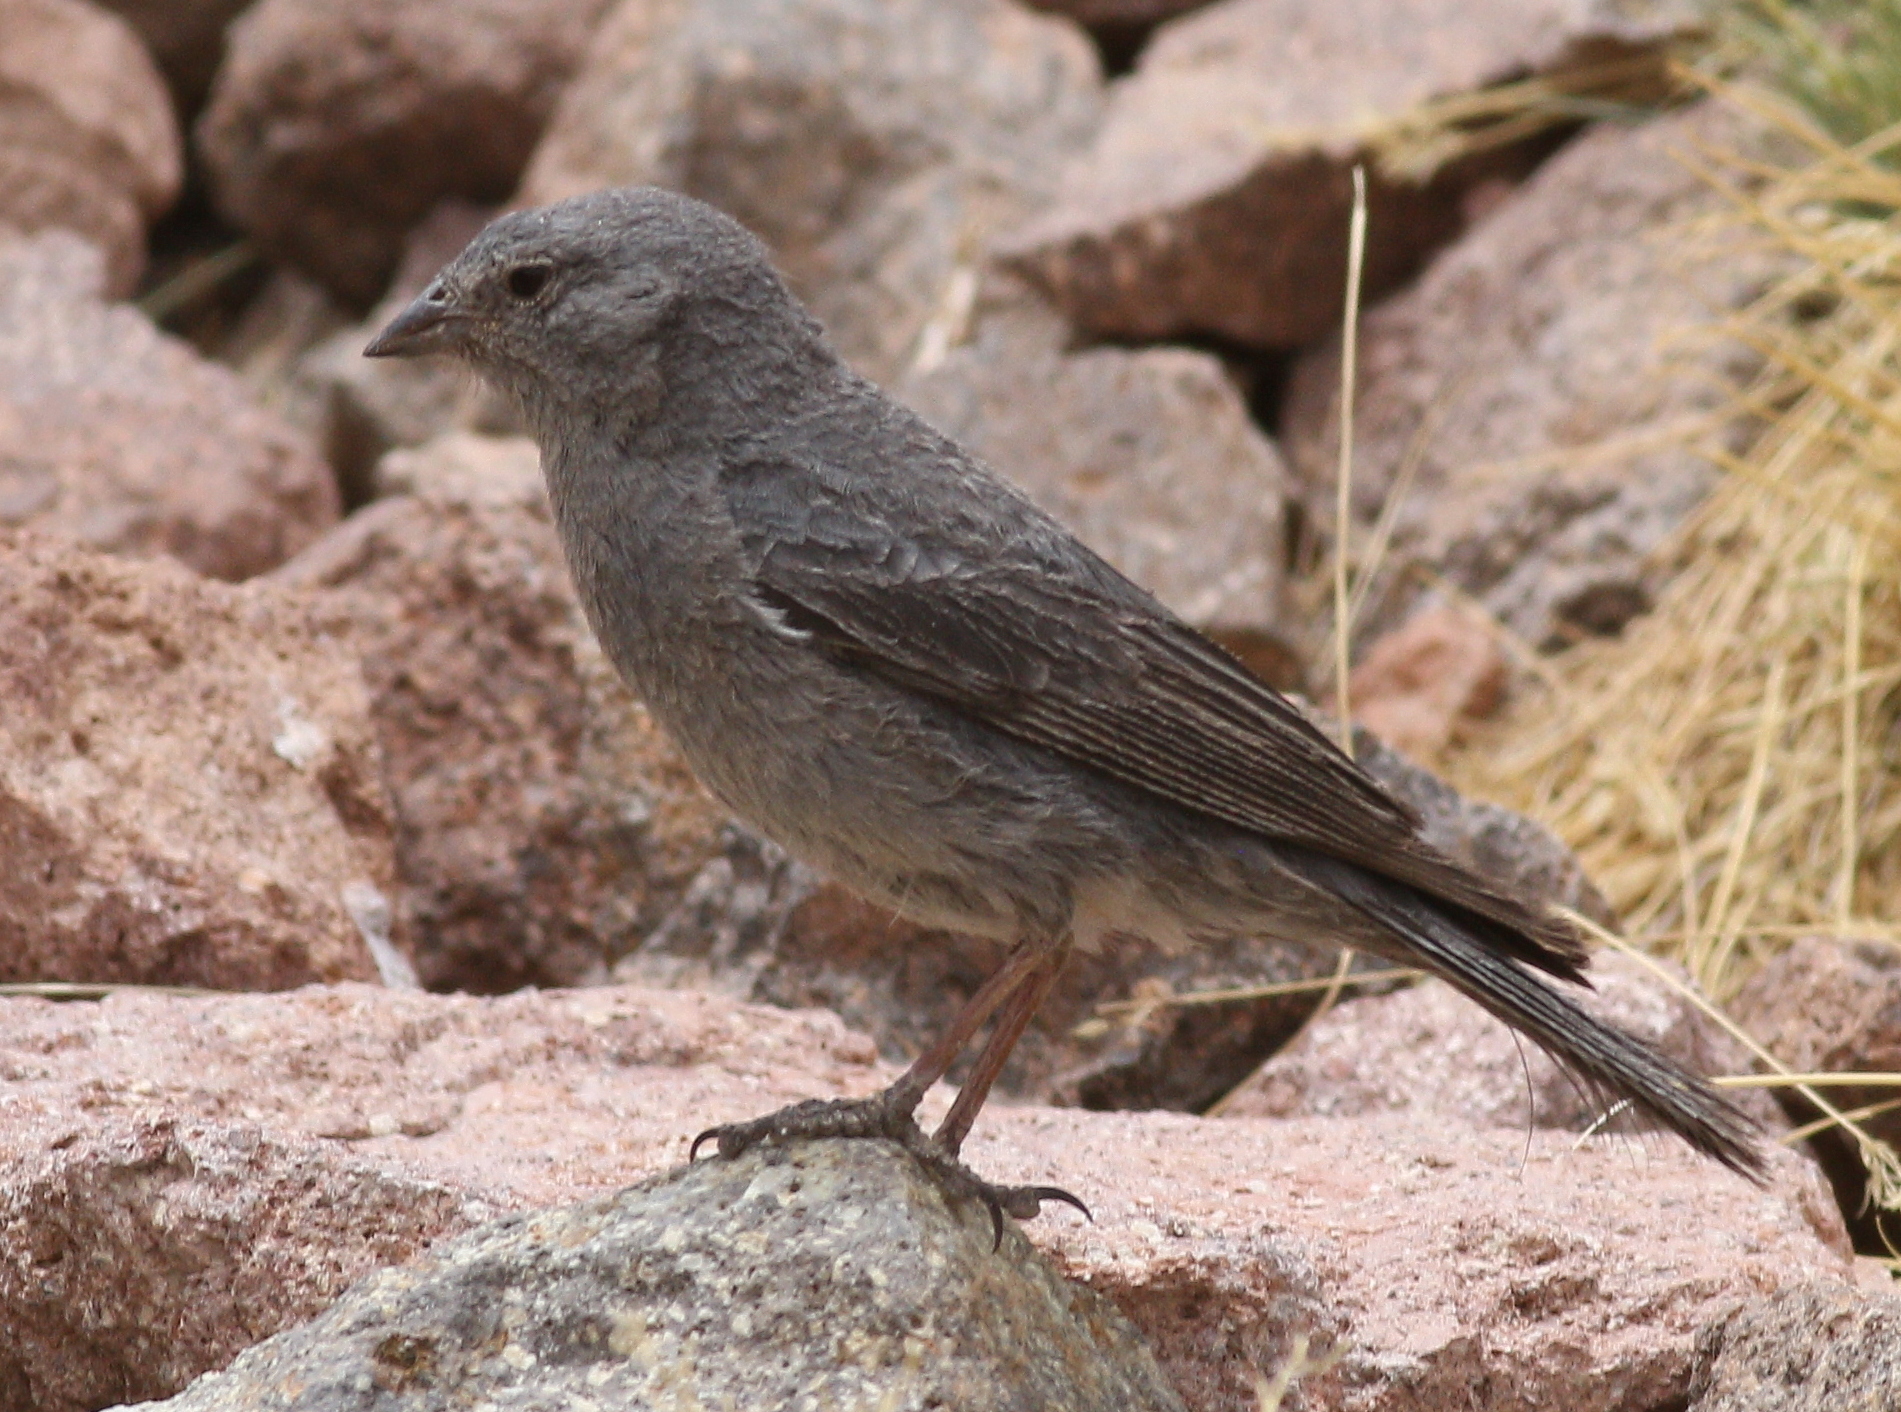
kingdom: Animalia
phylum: Chordata
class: Aves
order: Passeriformes
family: Thraupidae
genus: Geospizopsis
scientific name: Geospizopsis unicolor
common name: Plumbeous sierra-finch
